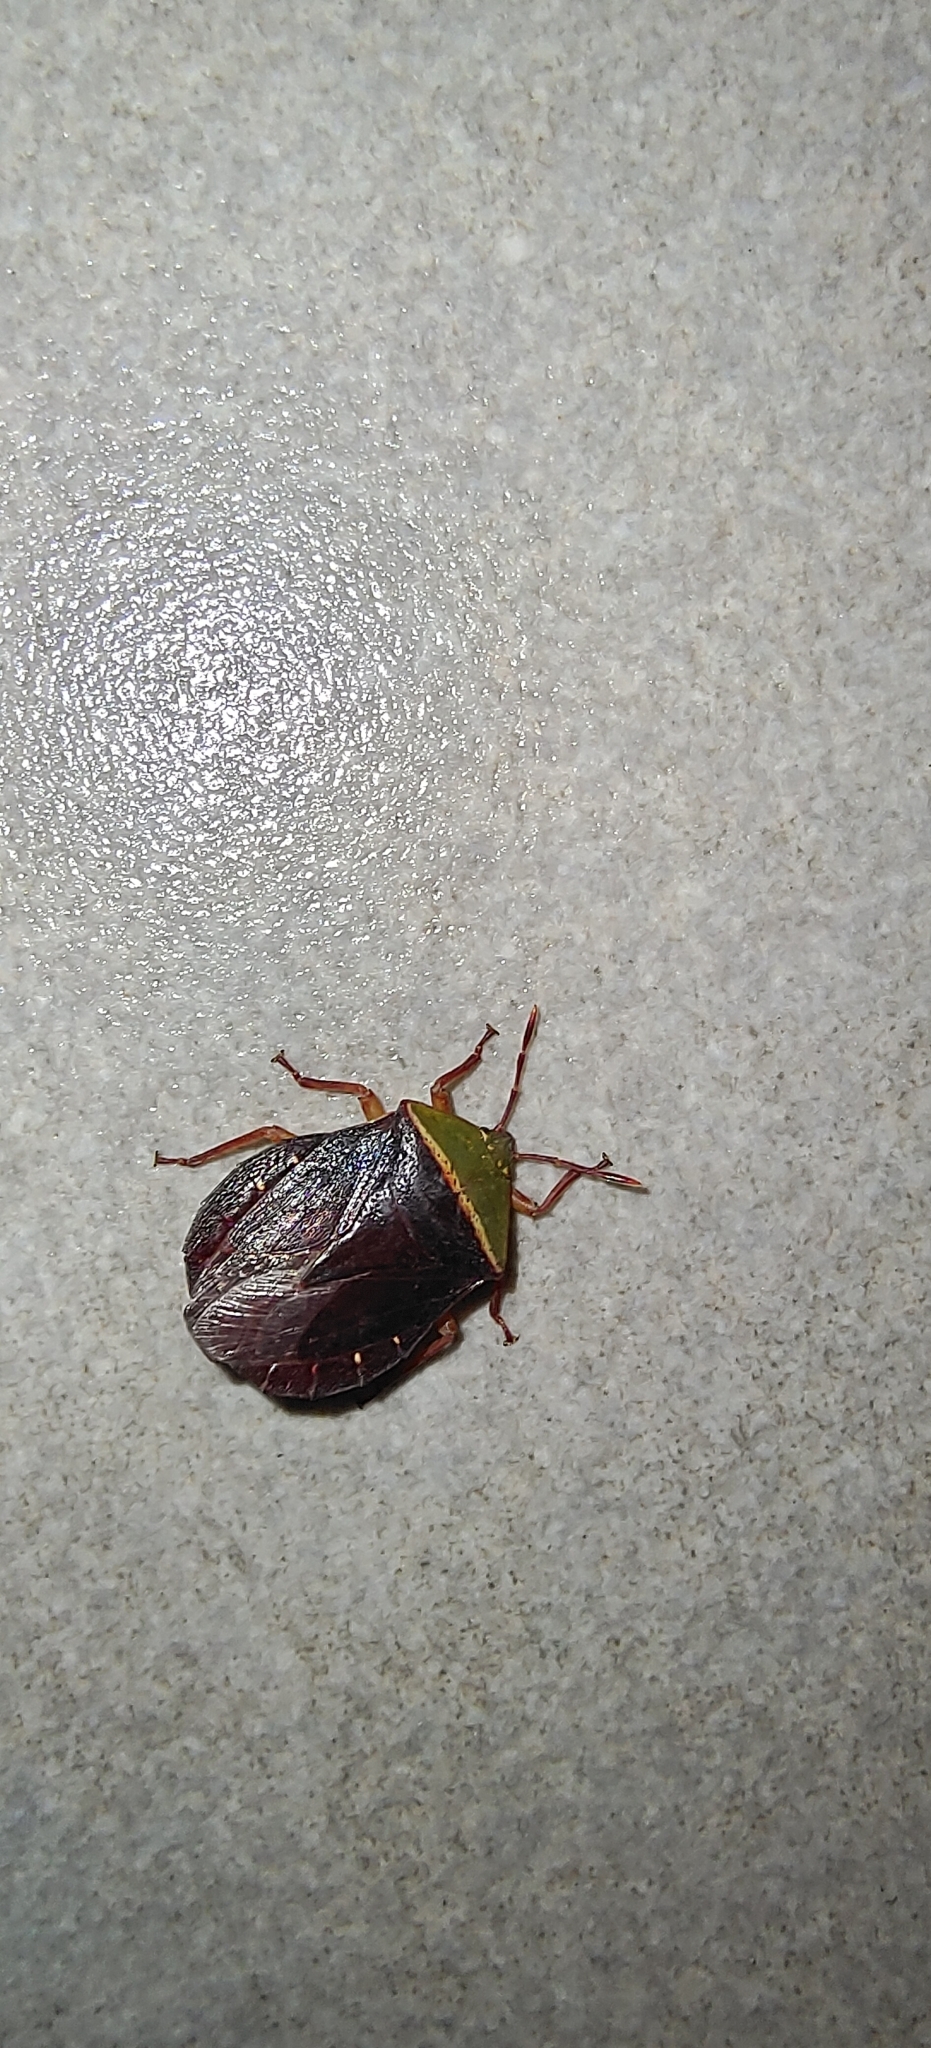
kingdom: Animalia
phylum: Arthropoda
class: Insecta
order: Hemiptera
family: Tessaratomidae
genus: Enada
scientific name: Enada rosea
